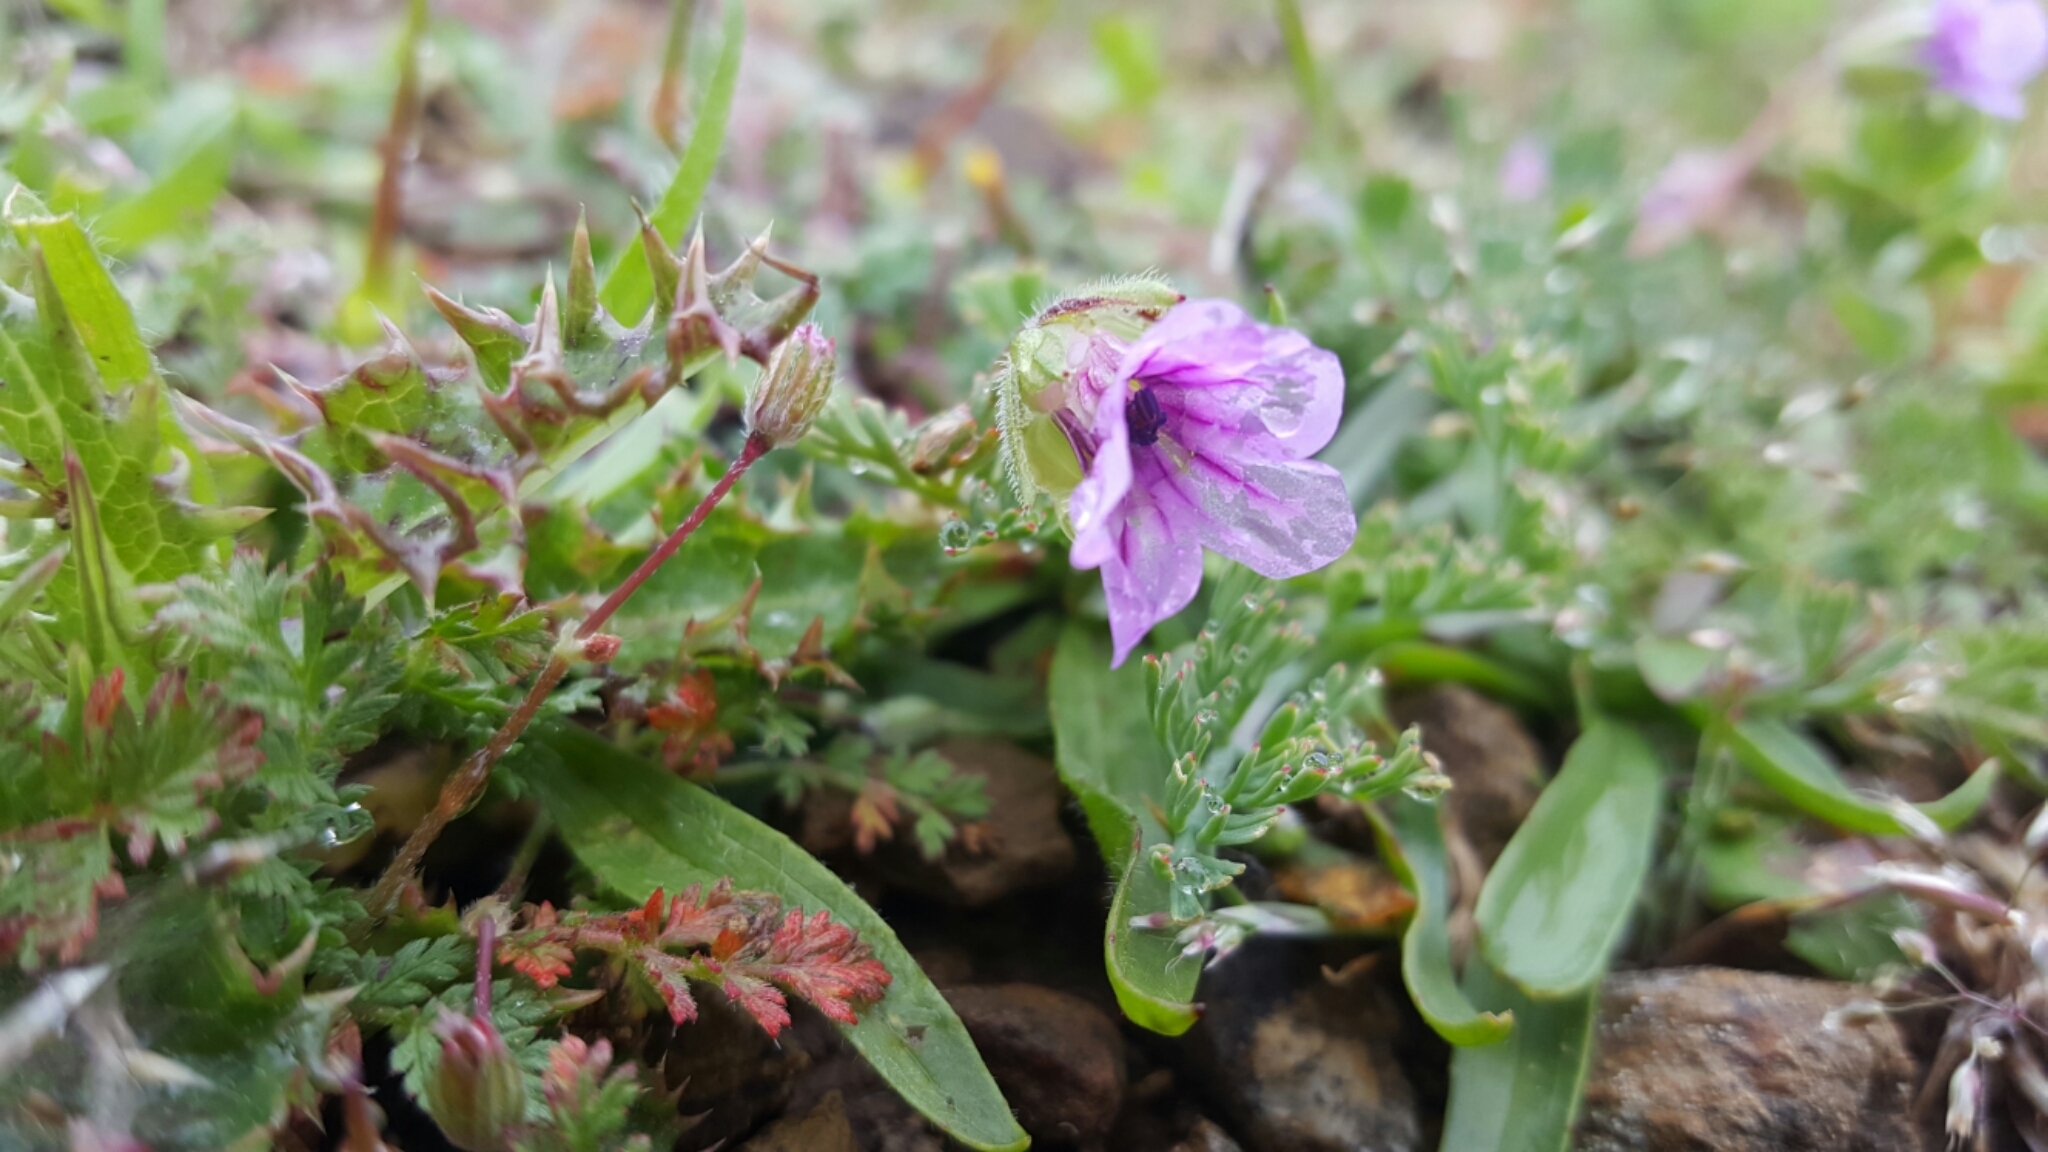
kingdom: Plantae
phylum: Tracheophyta
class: Magnoliopsida
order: Geraniales
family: Geraniaceae
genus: Erodium
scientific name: Erodium botrys
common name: Mediterranean stork's-bill
